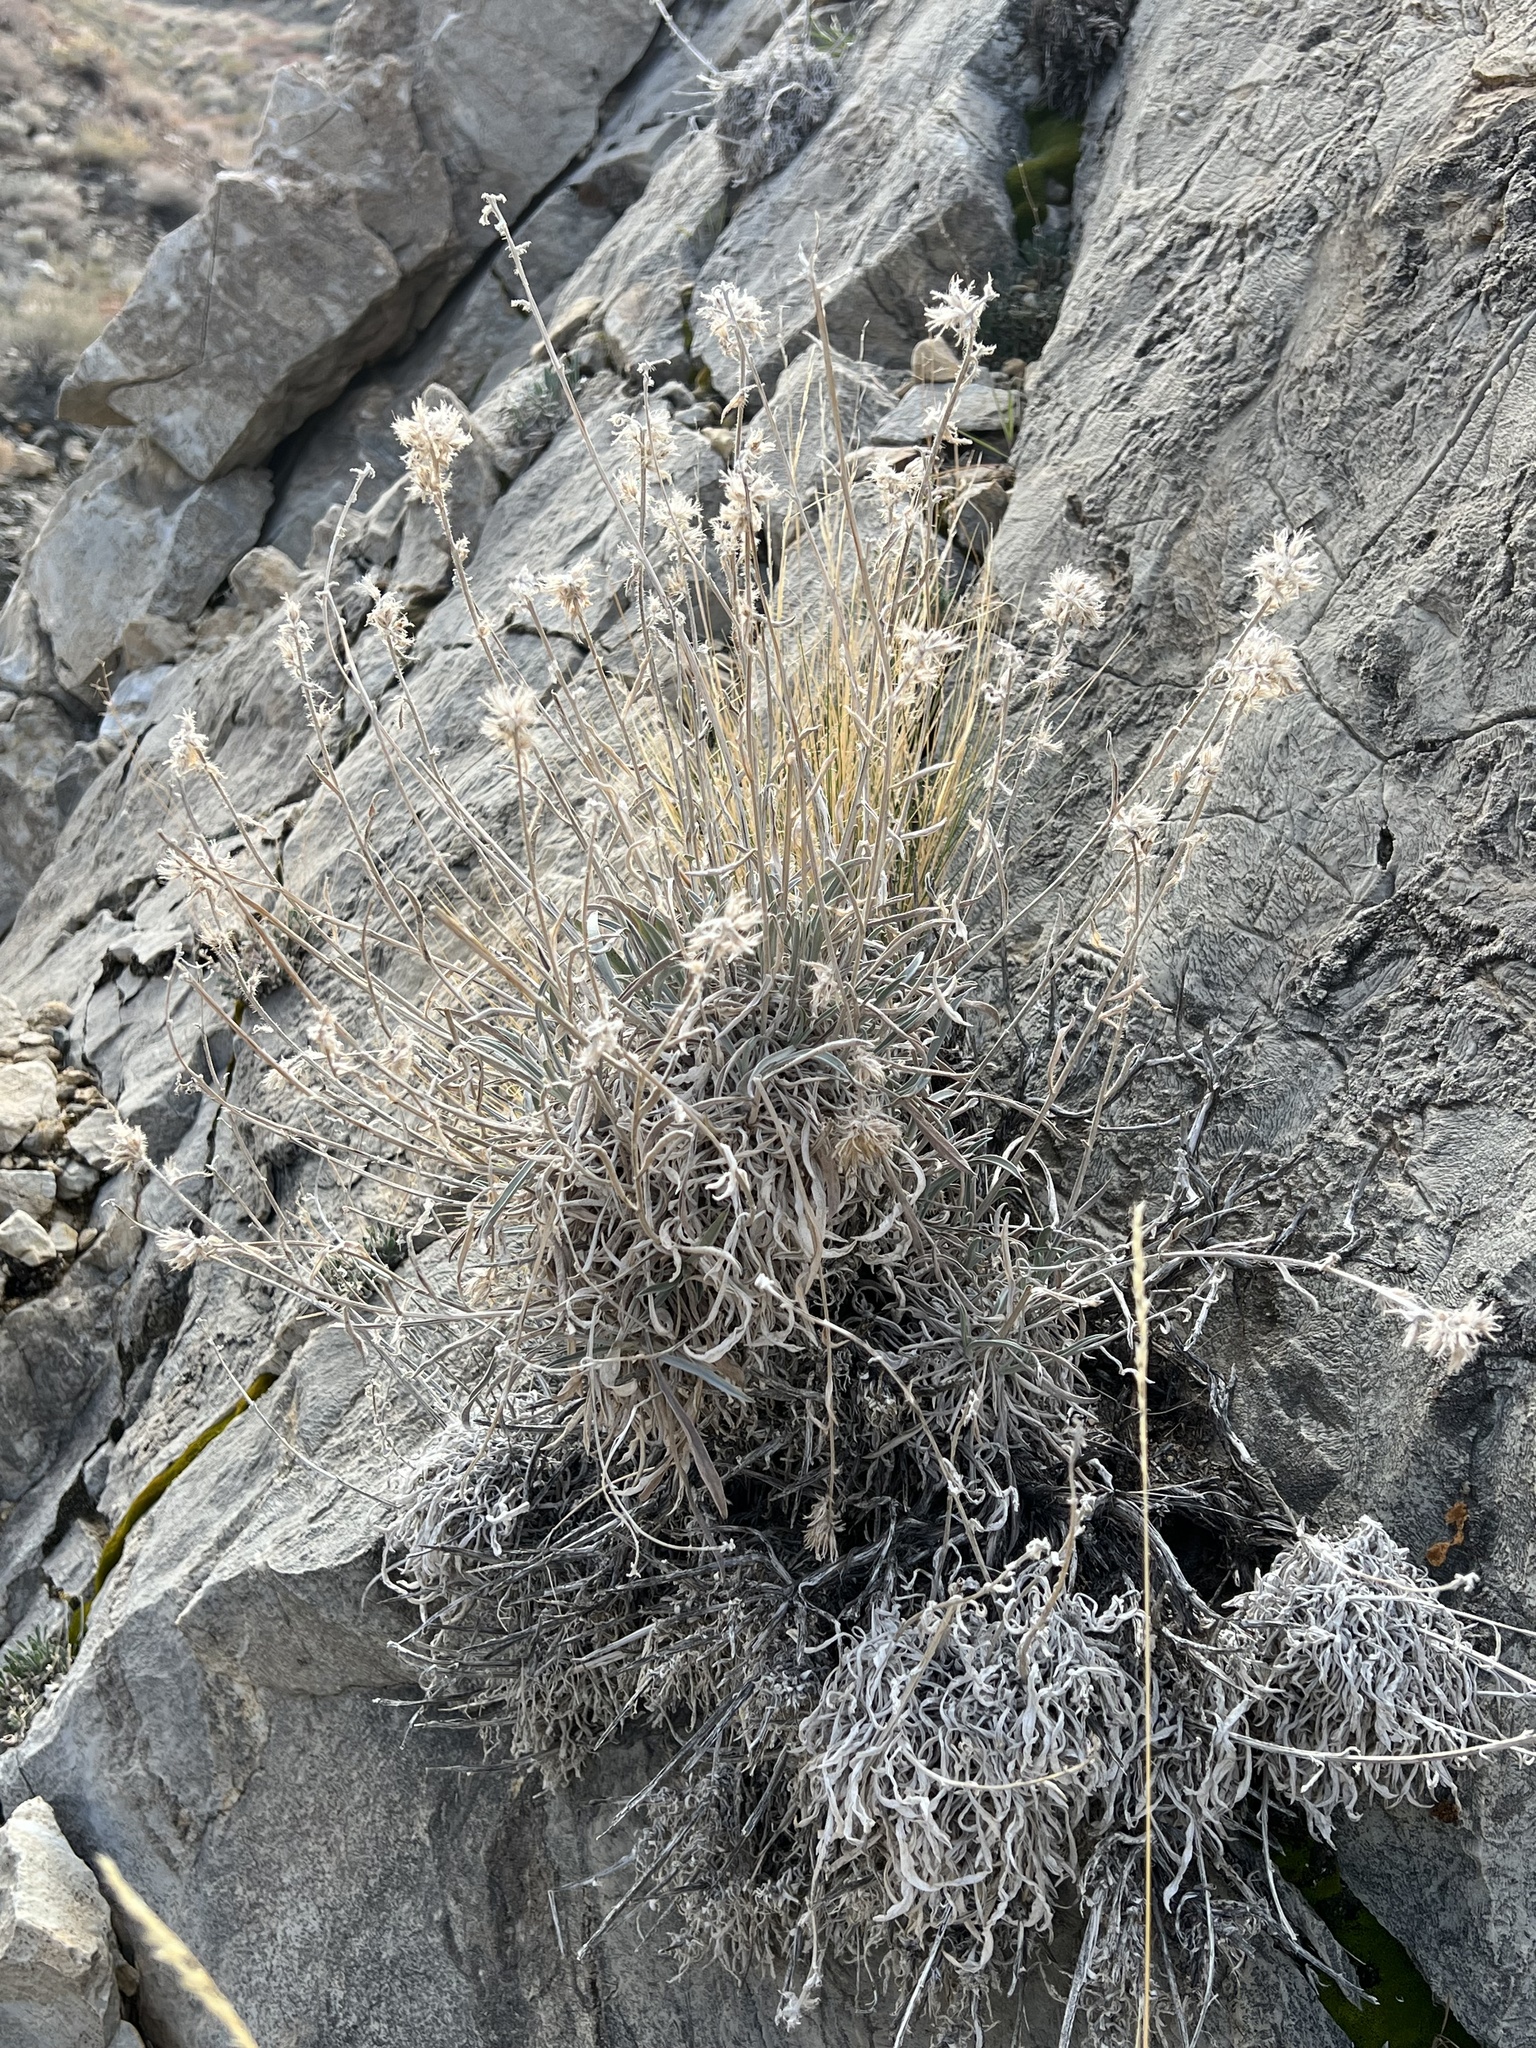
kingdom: Plantae
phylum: Tracheophyta
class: Magnoliopsida
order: Boraginales
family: Boraginaceae
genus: Oreocarya
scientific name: Oreocarya confertiflora
